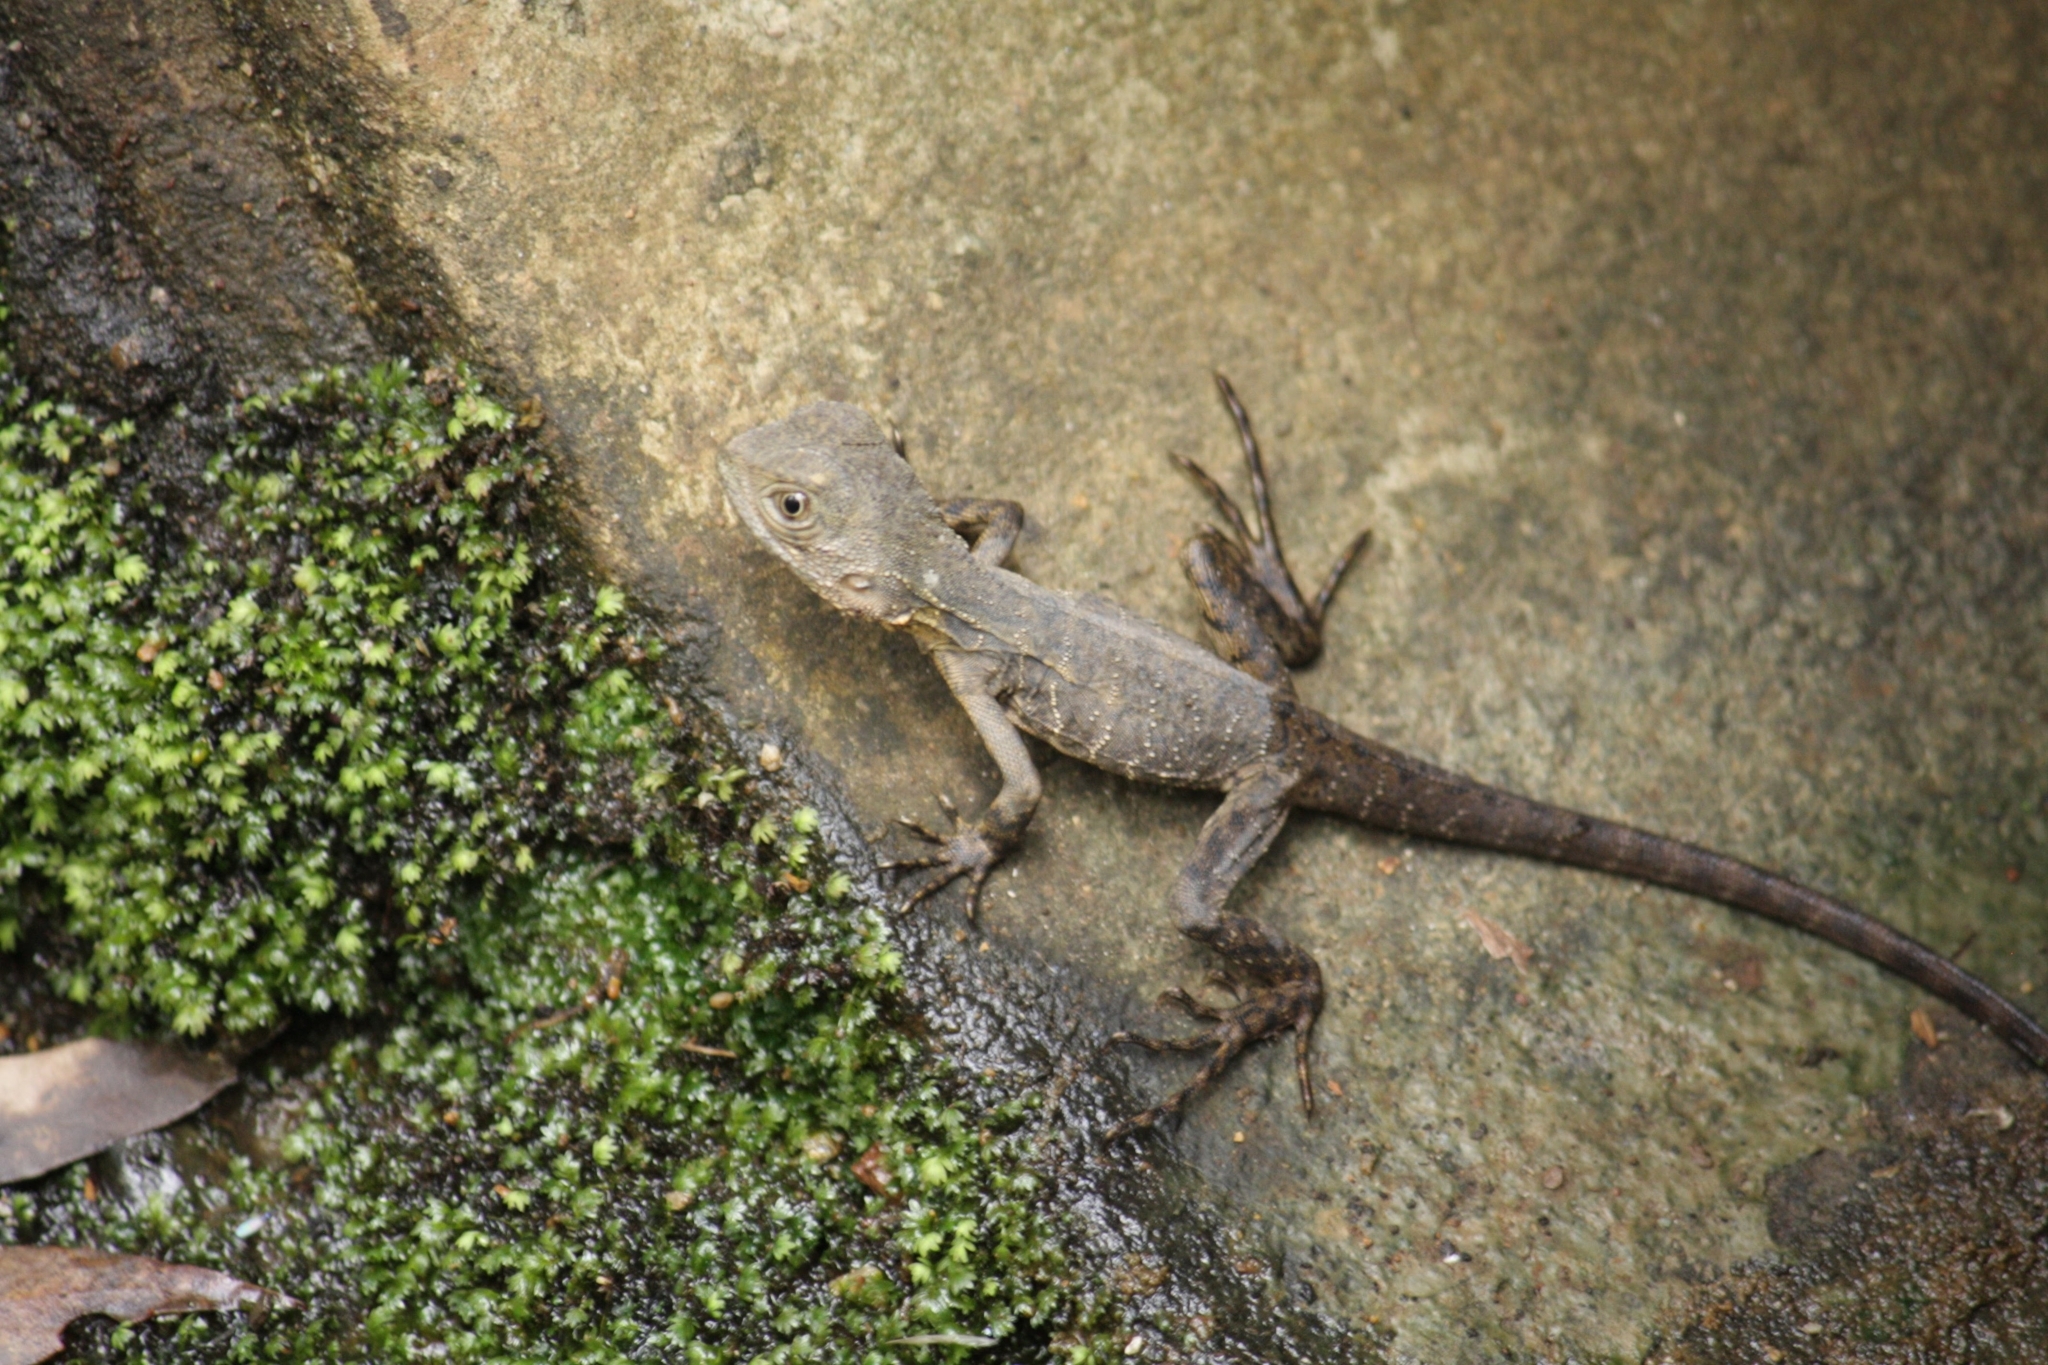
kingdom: Animalia
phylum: Chordata
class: Squamata
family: Agamidae
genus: Intellagama
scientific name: Intellagama lesueurii
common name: Eastern water dragon
